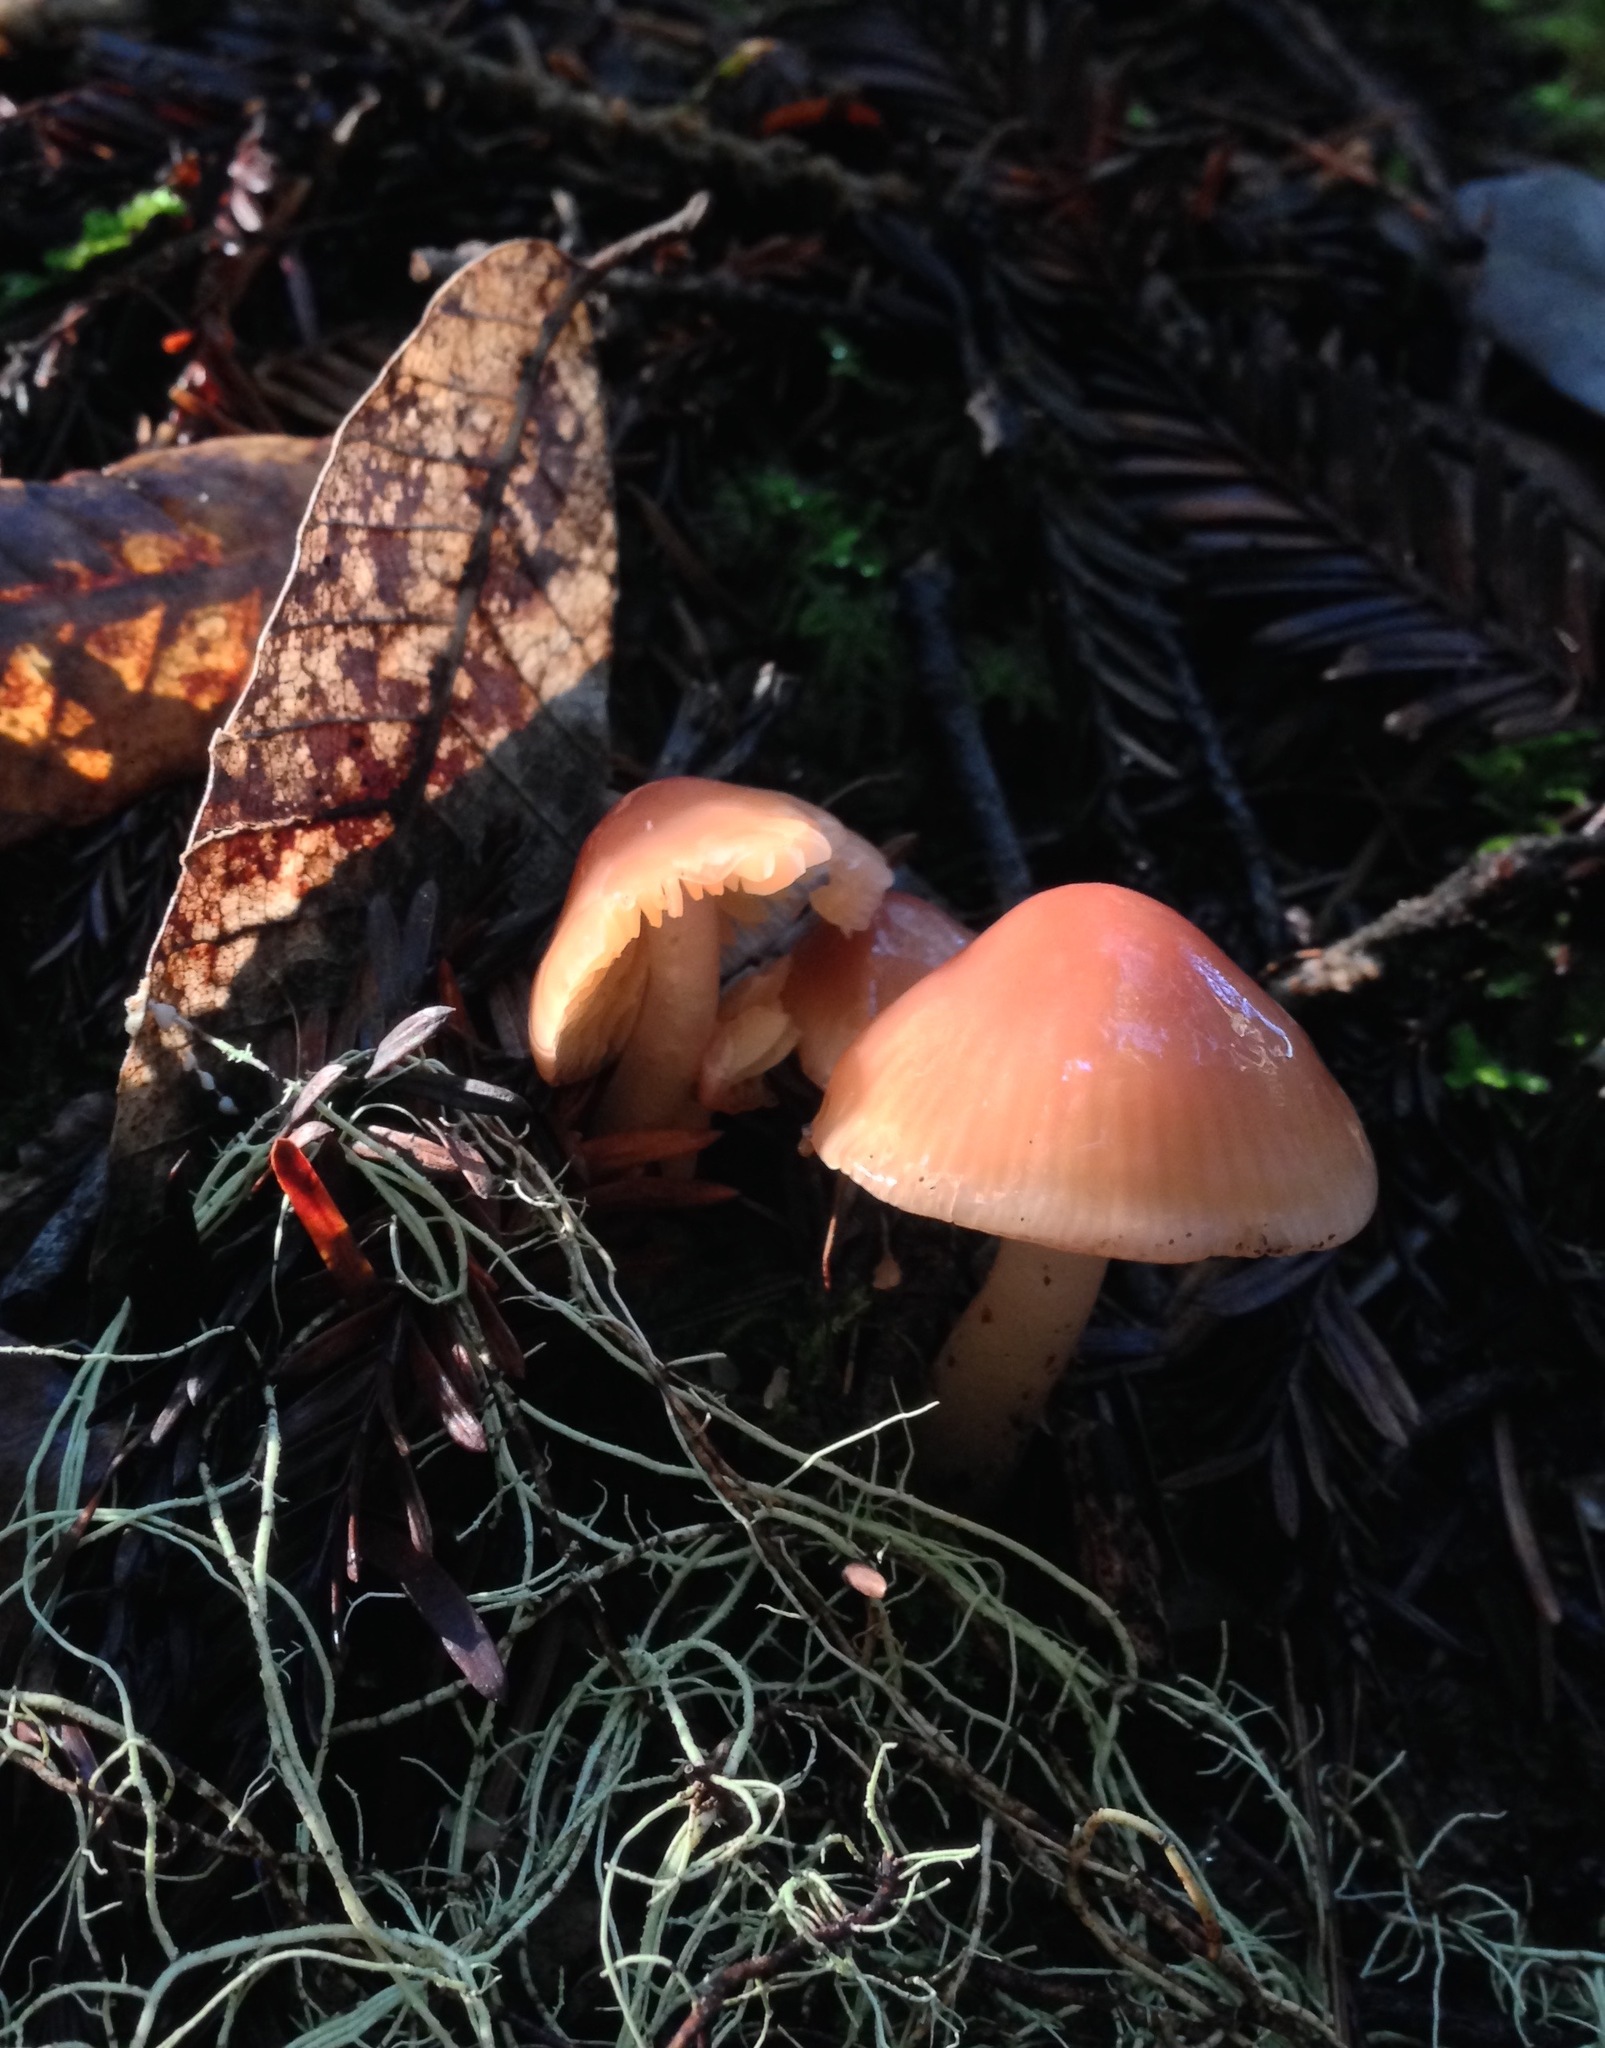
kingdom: Fungi
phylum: Basidiomycota
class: Agaricomycetes
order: Agaricales
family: Hygrophoraceae
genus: Gliophorus
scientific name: Gliophorus psittacinus
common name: Parrot wax-cap
